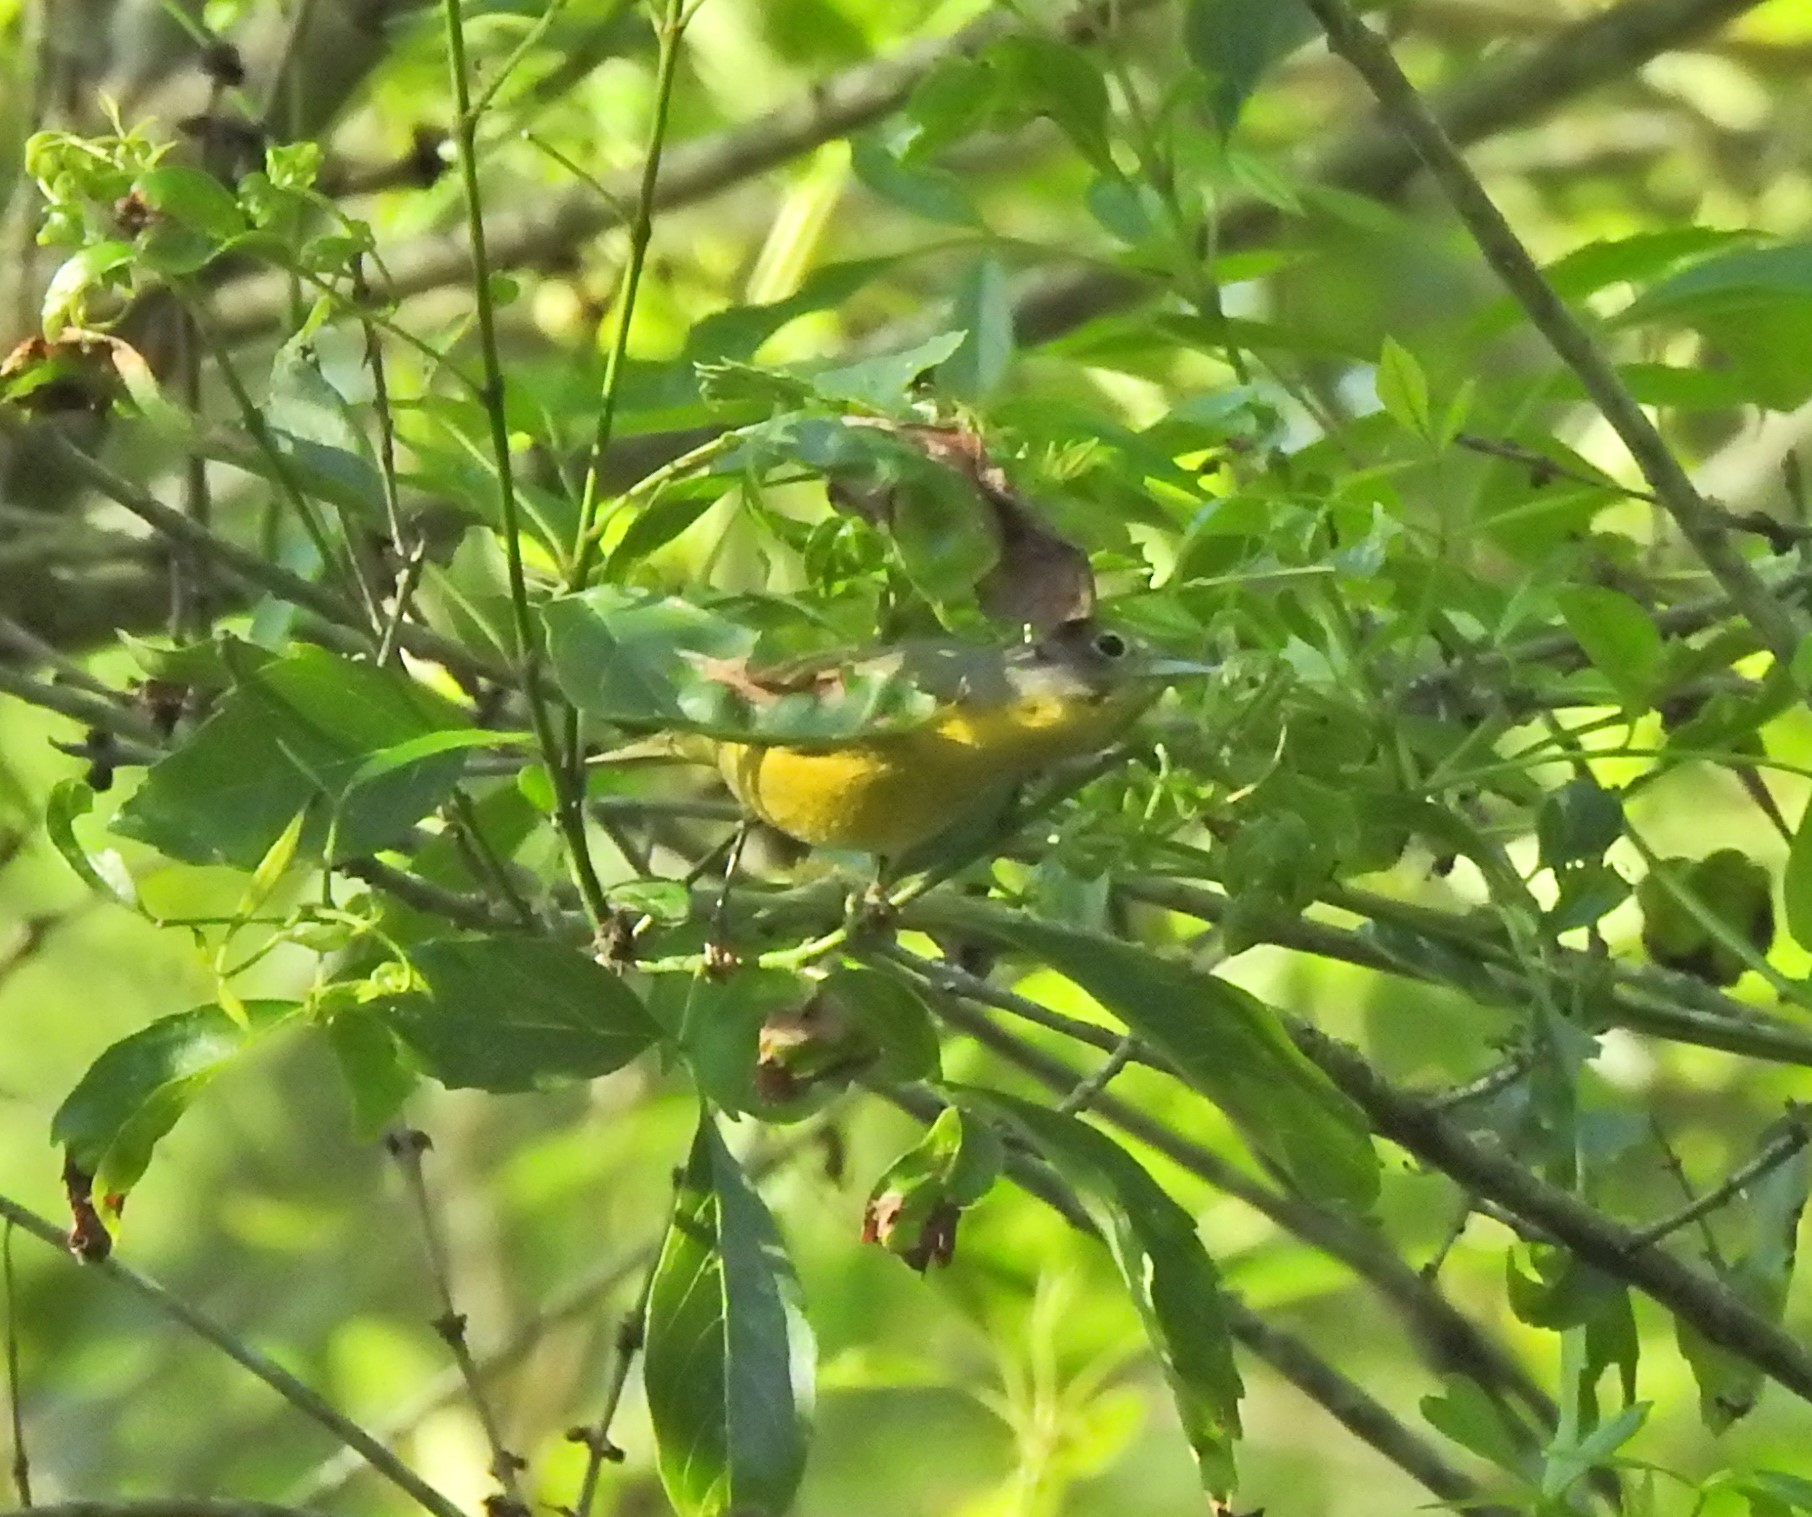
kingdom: Animalia
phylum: Chordata
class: Aves
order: Passeriformes
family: Parulidae
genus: Leiothlypis
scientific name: Leiothlypis ruficapilla
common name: Nashville warbler
